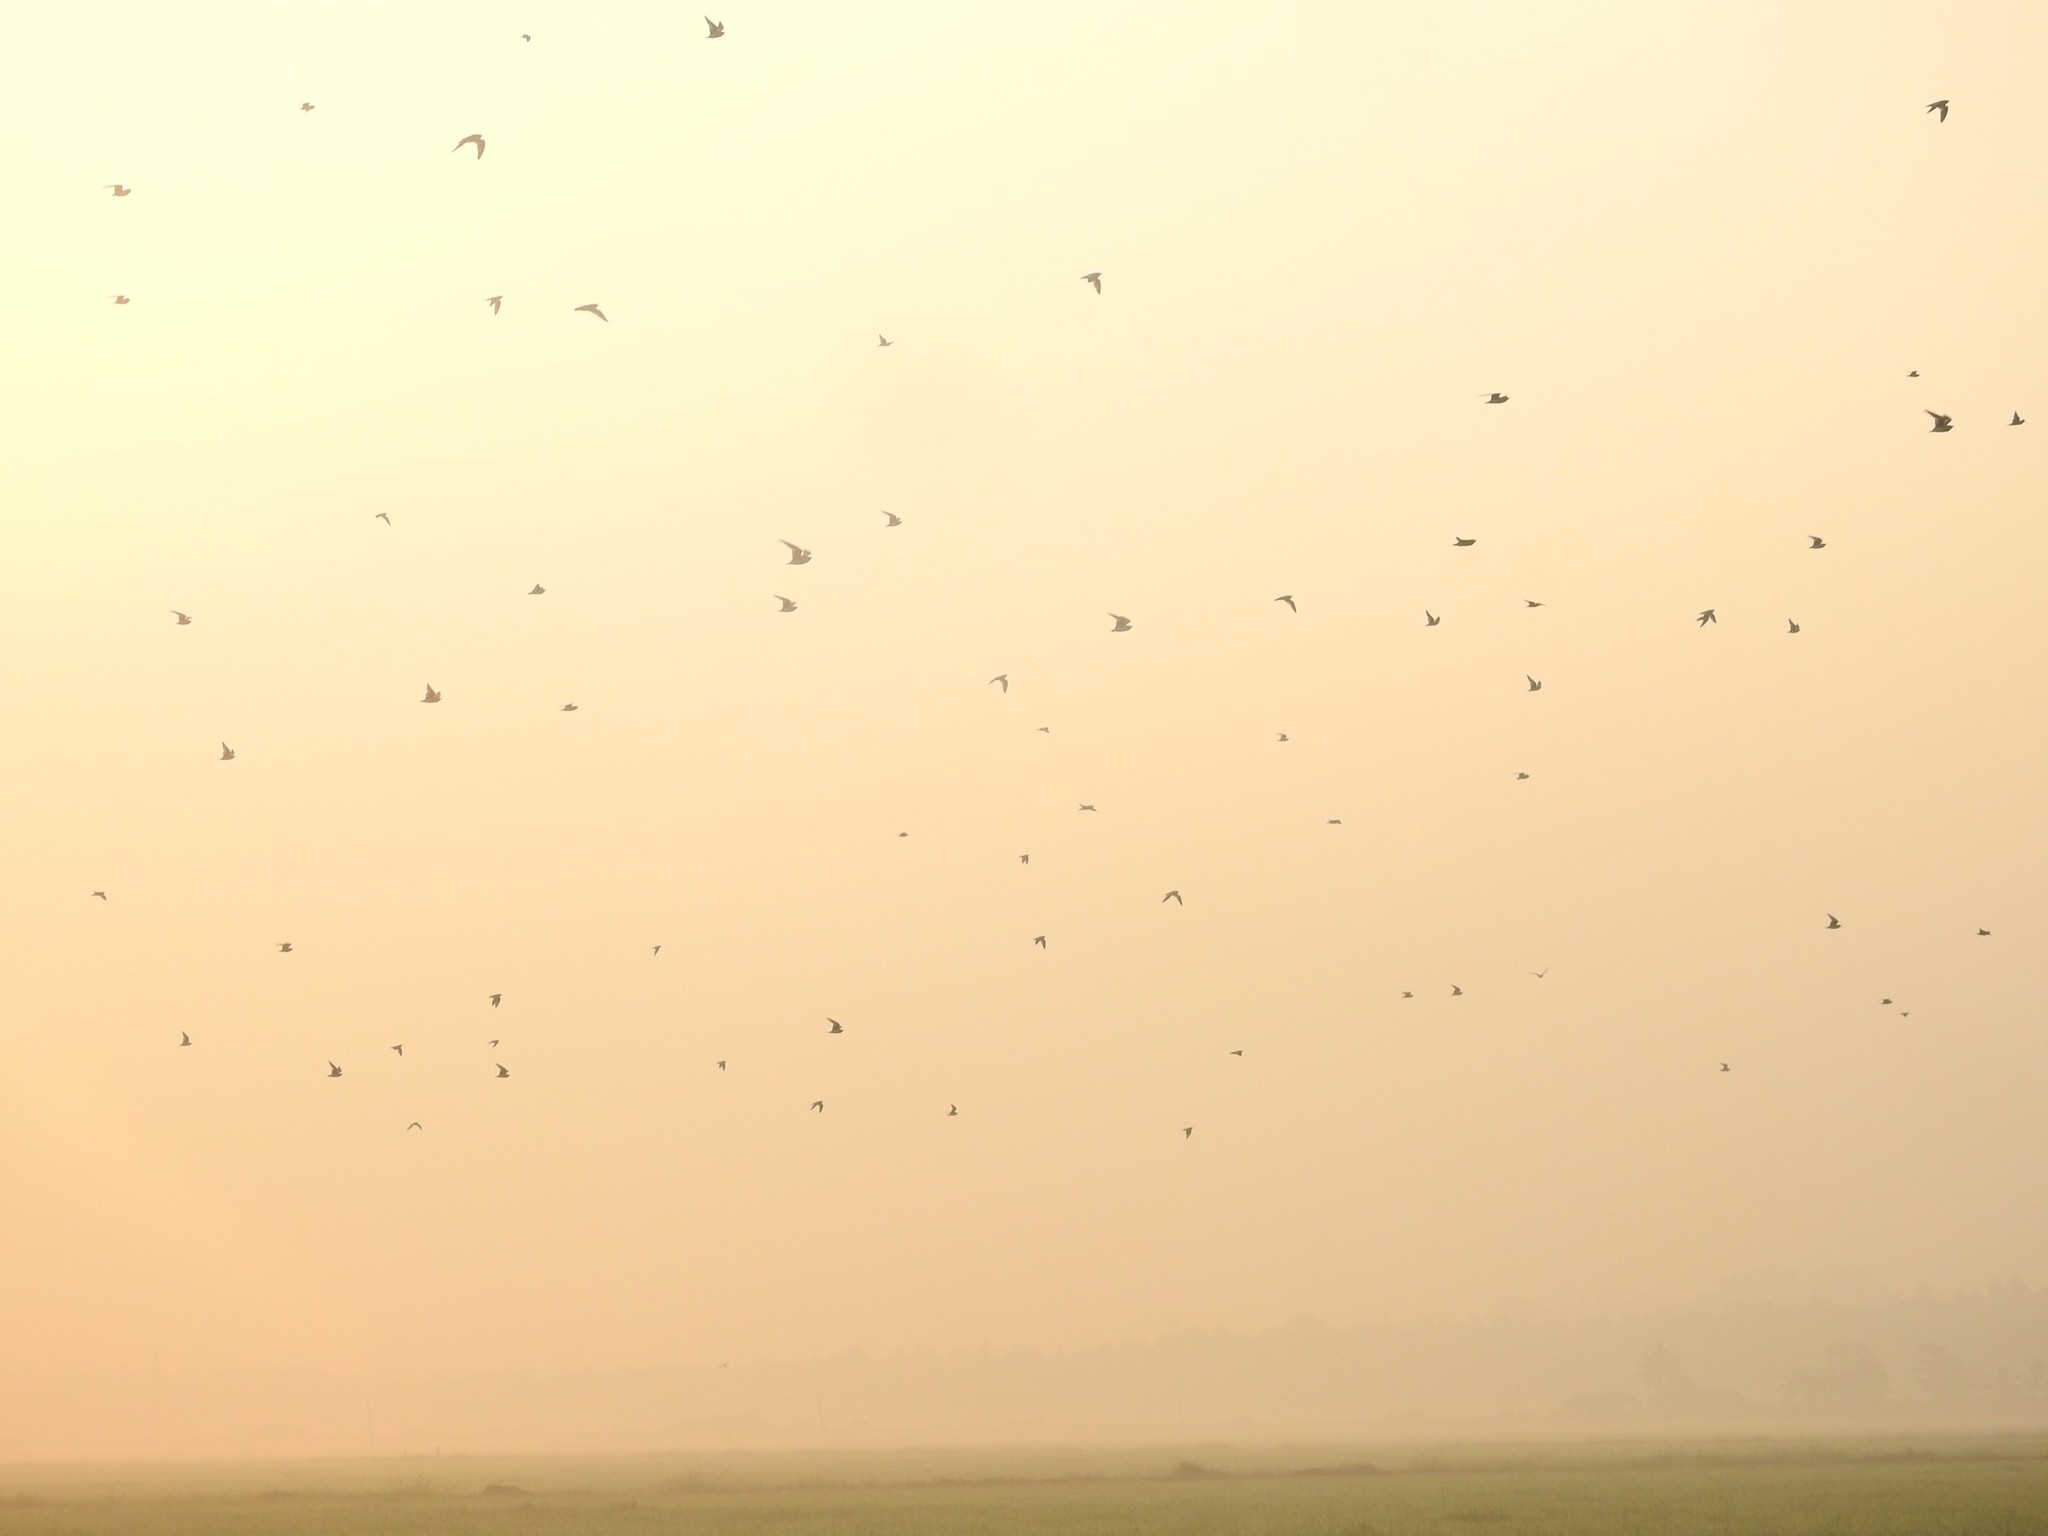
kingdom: Animalia
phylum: Chordata
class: Aves
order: Charadriiformes
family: Glareolidae
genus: Glareola
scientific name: Glareola lactea
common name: Small pratincole
